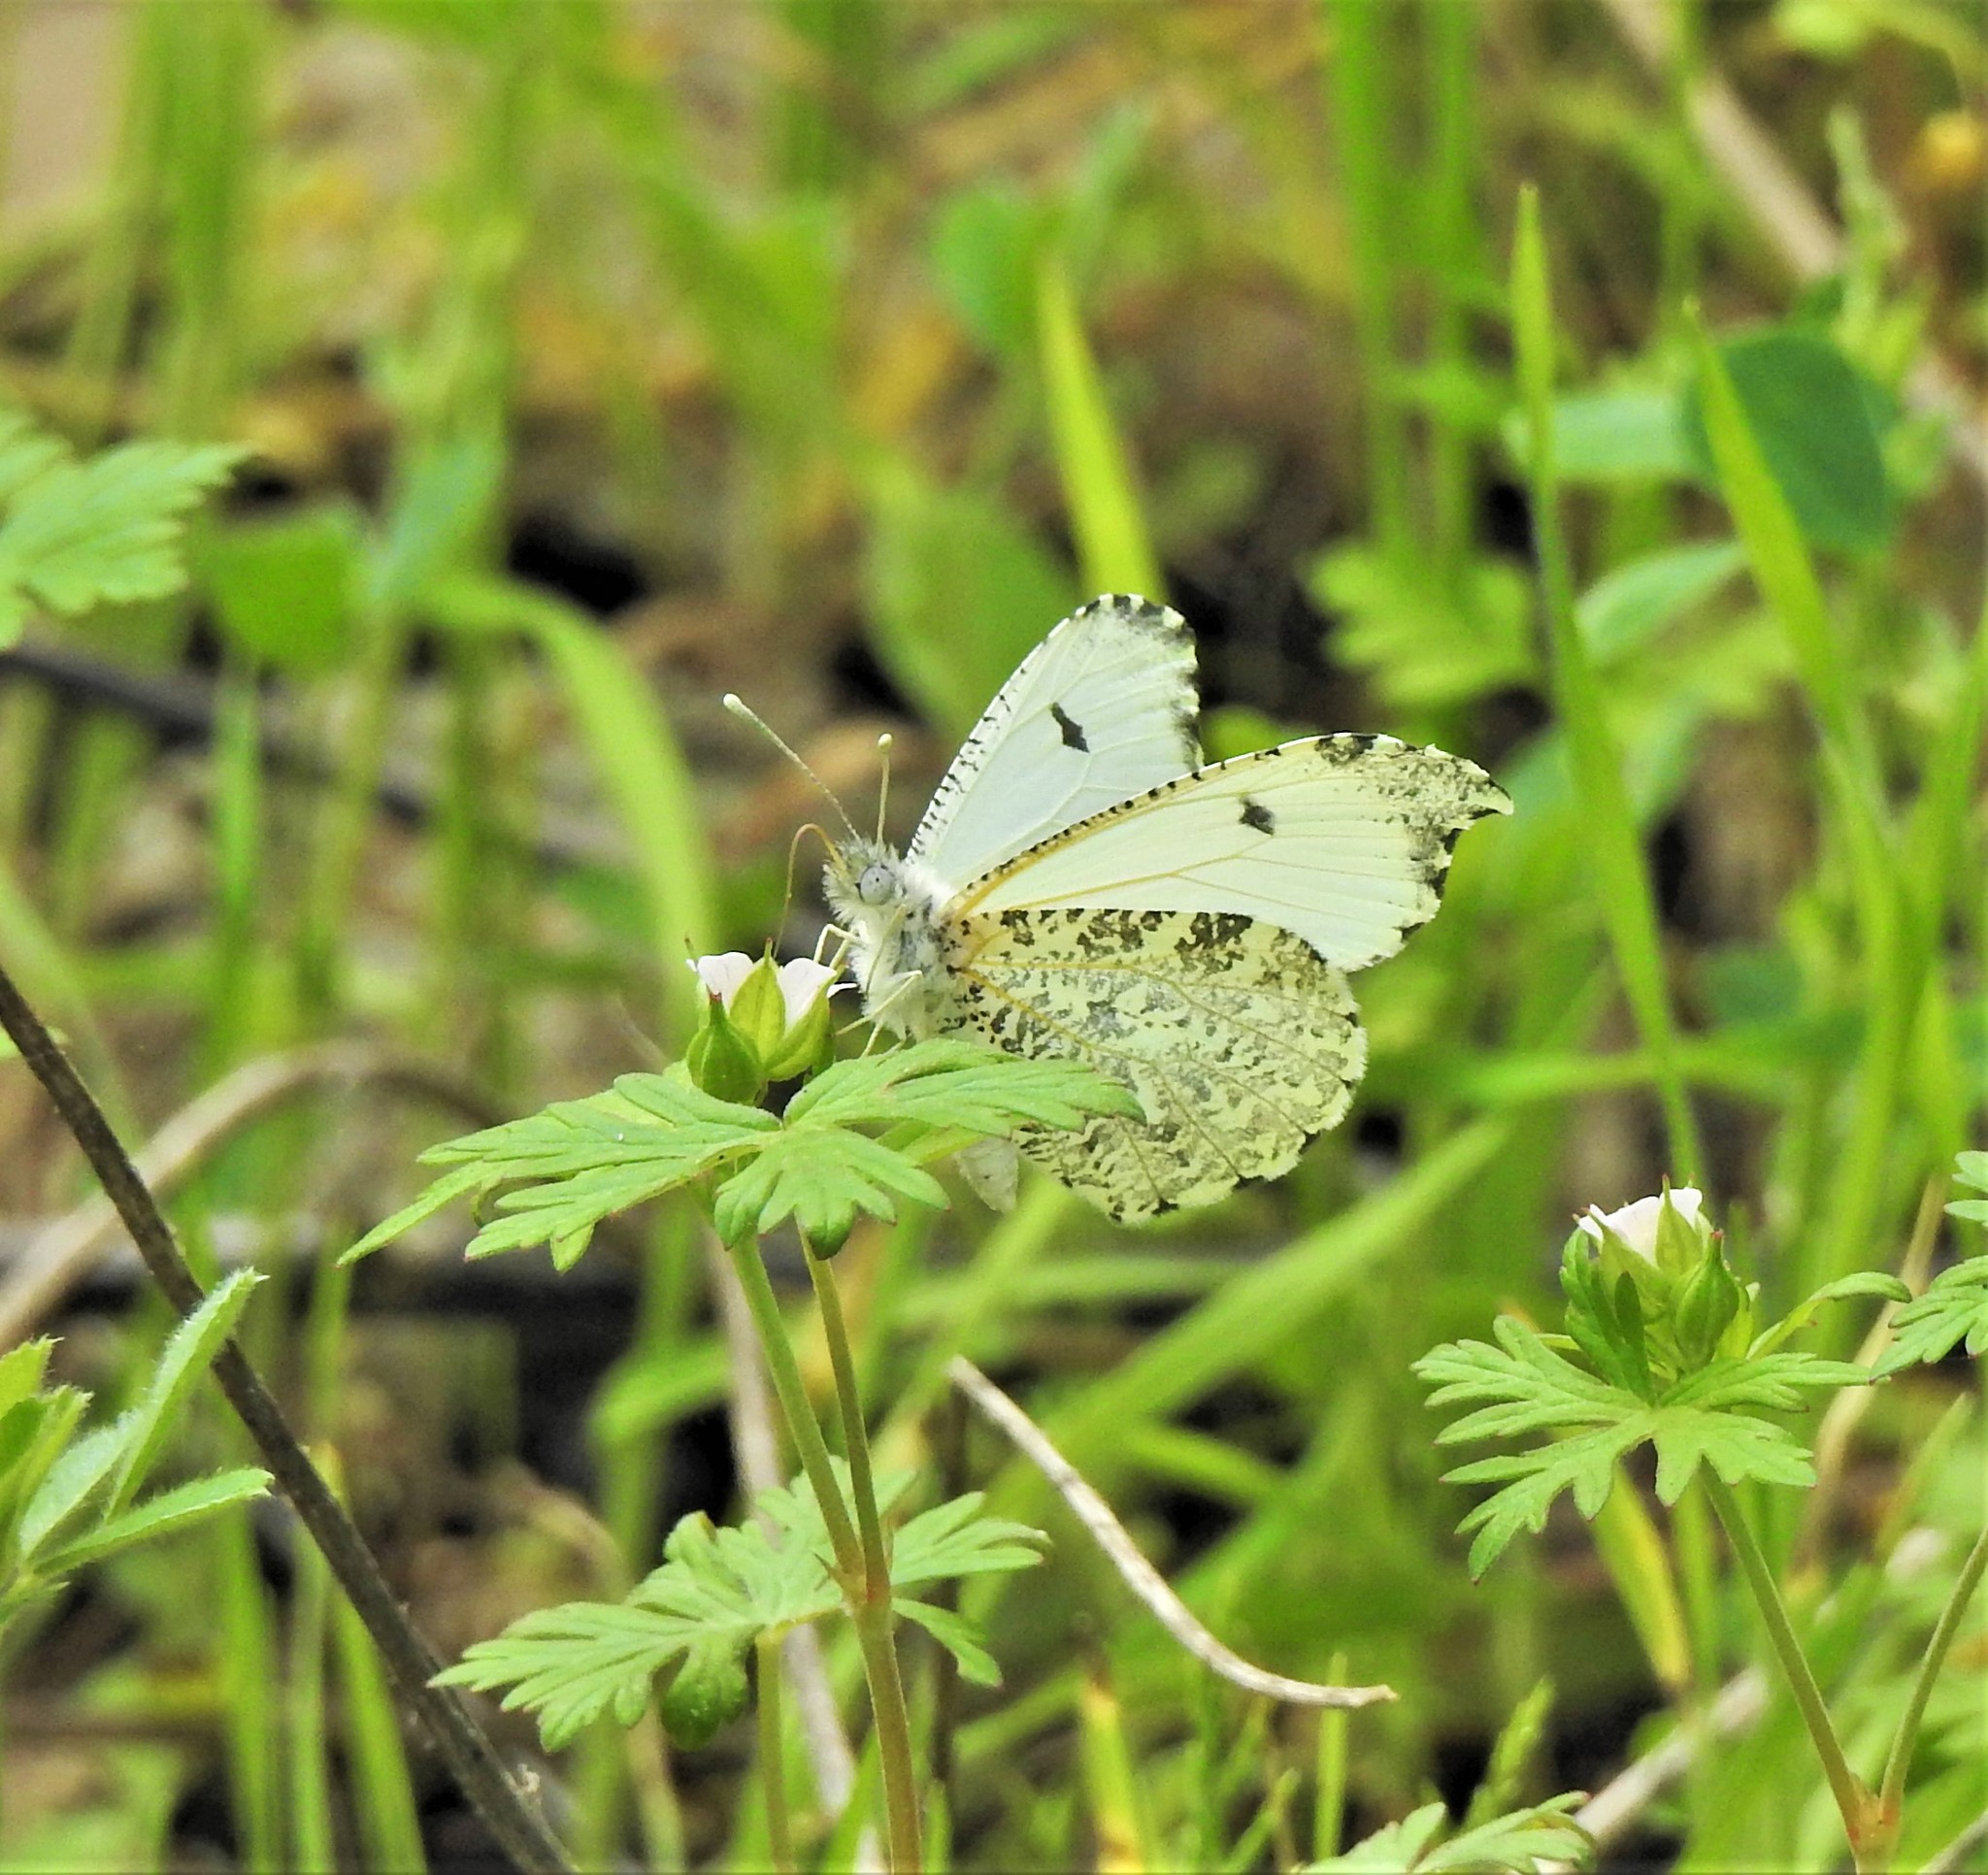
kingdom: Animalia
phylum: Arthropoda
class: Insecta
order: Lepidoptera
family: Pieridae
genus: Anthocharis
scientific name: Anthocharis midea
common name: Falcate orangetip
